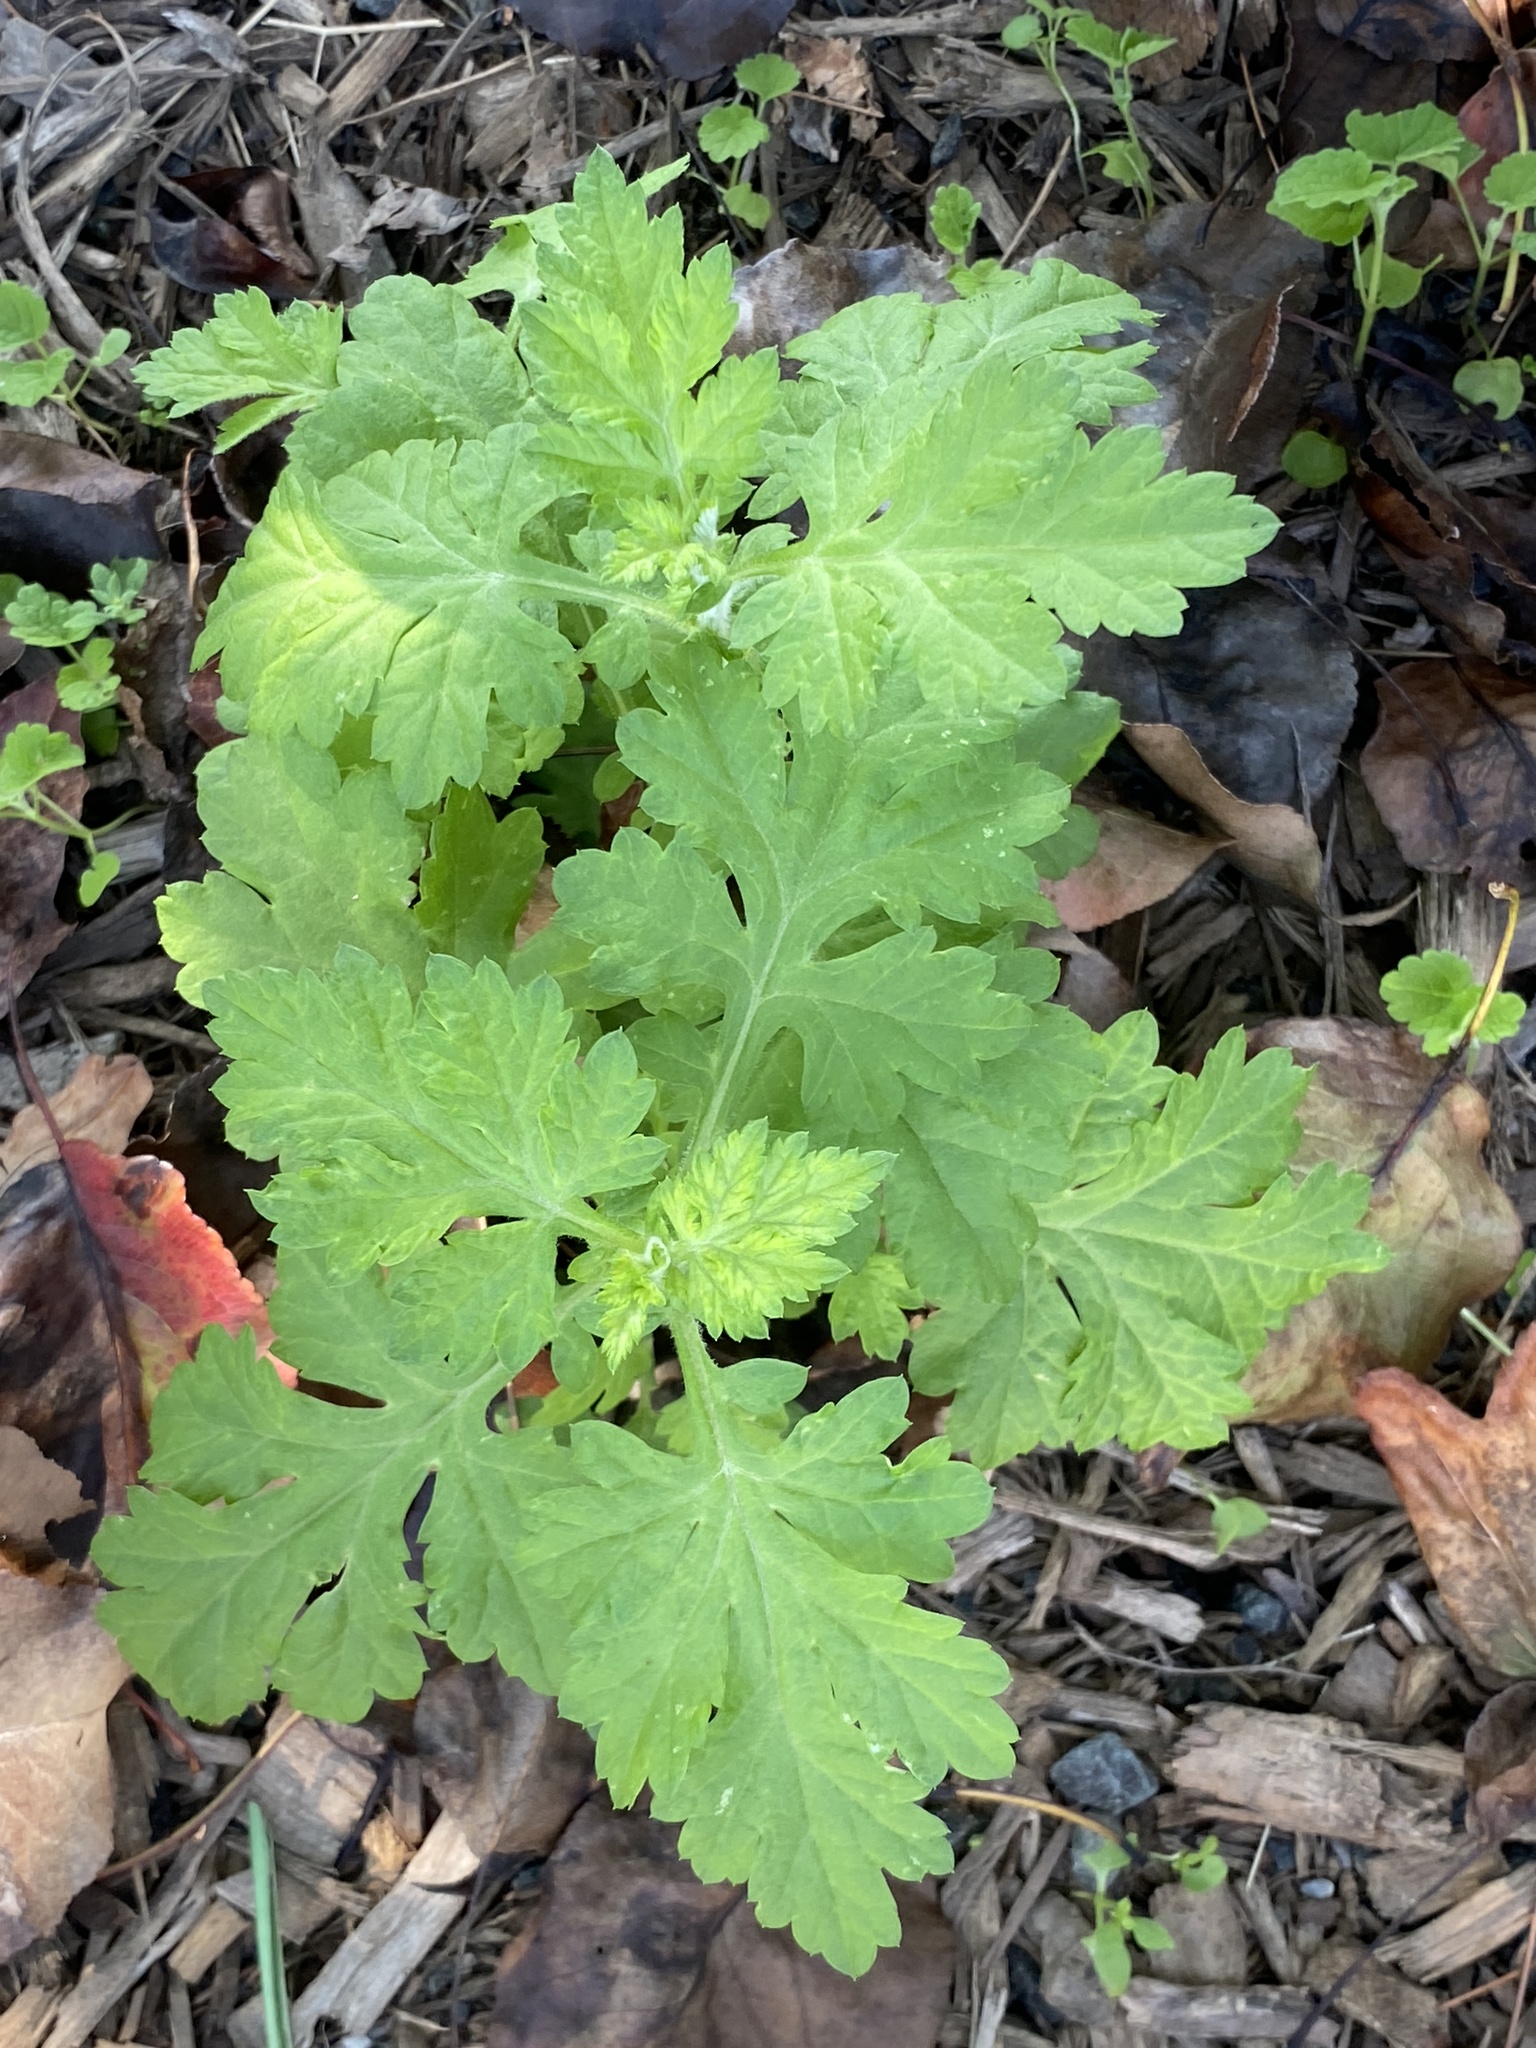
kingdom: Plantae
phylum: Tracheophyta
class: Magnoliopsida
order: Asterales
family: Asteraceae
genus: Artemisia
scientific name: Artemisia vulgaris
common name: Mugwort
